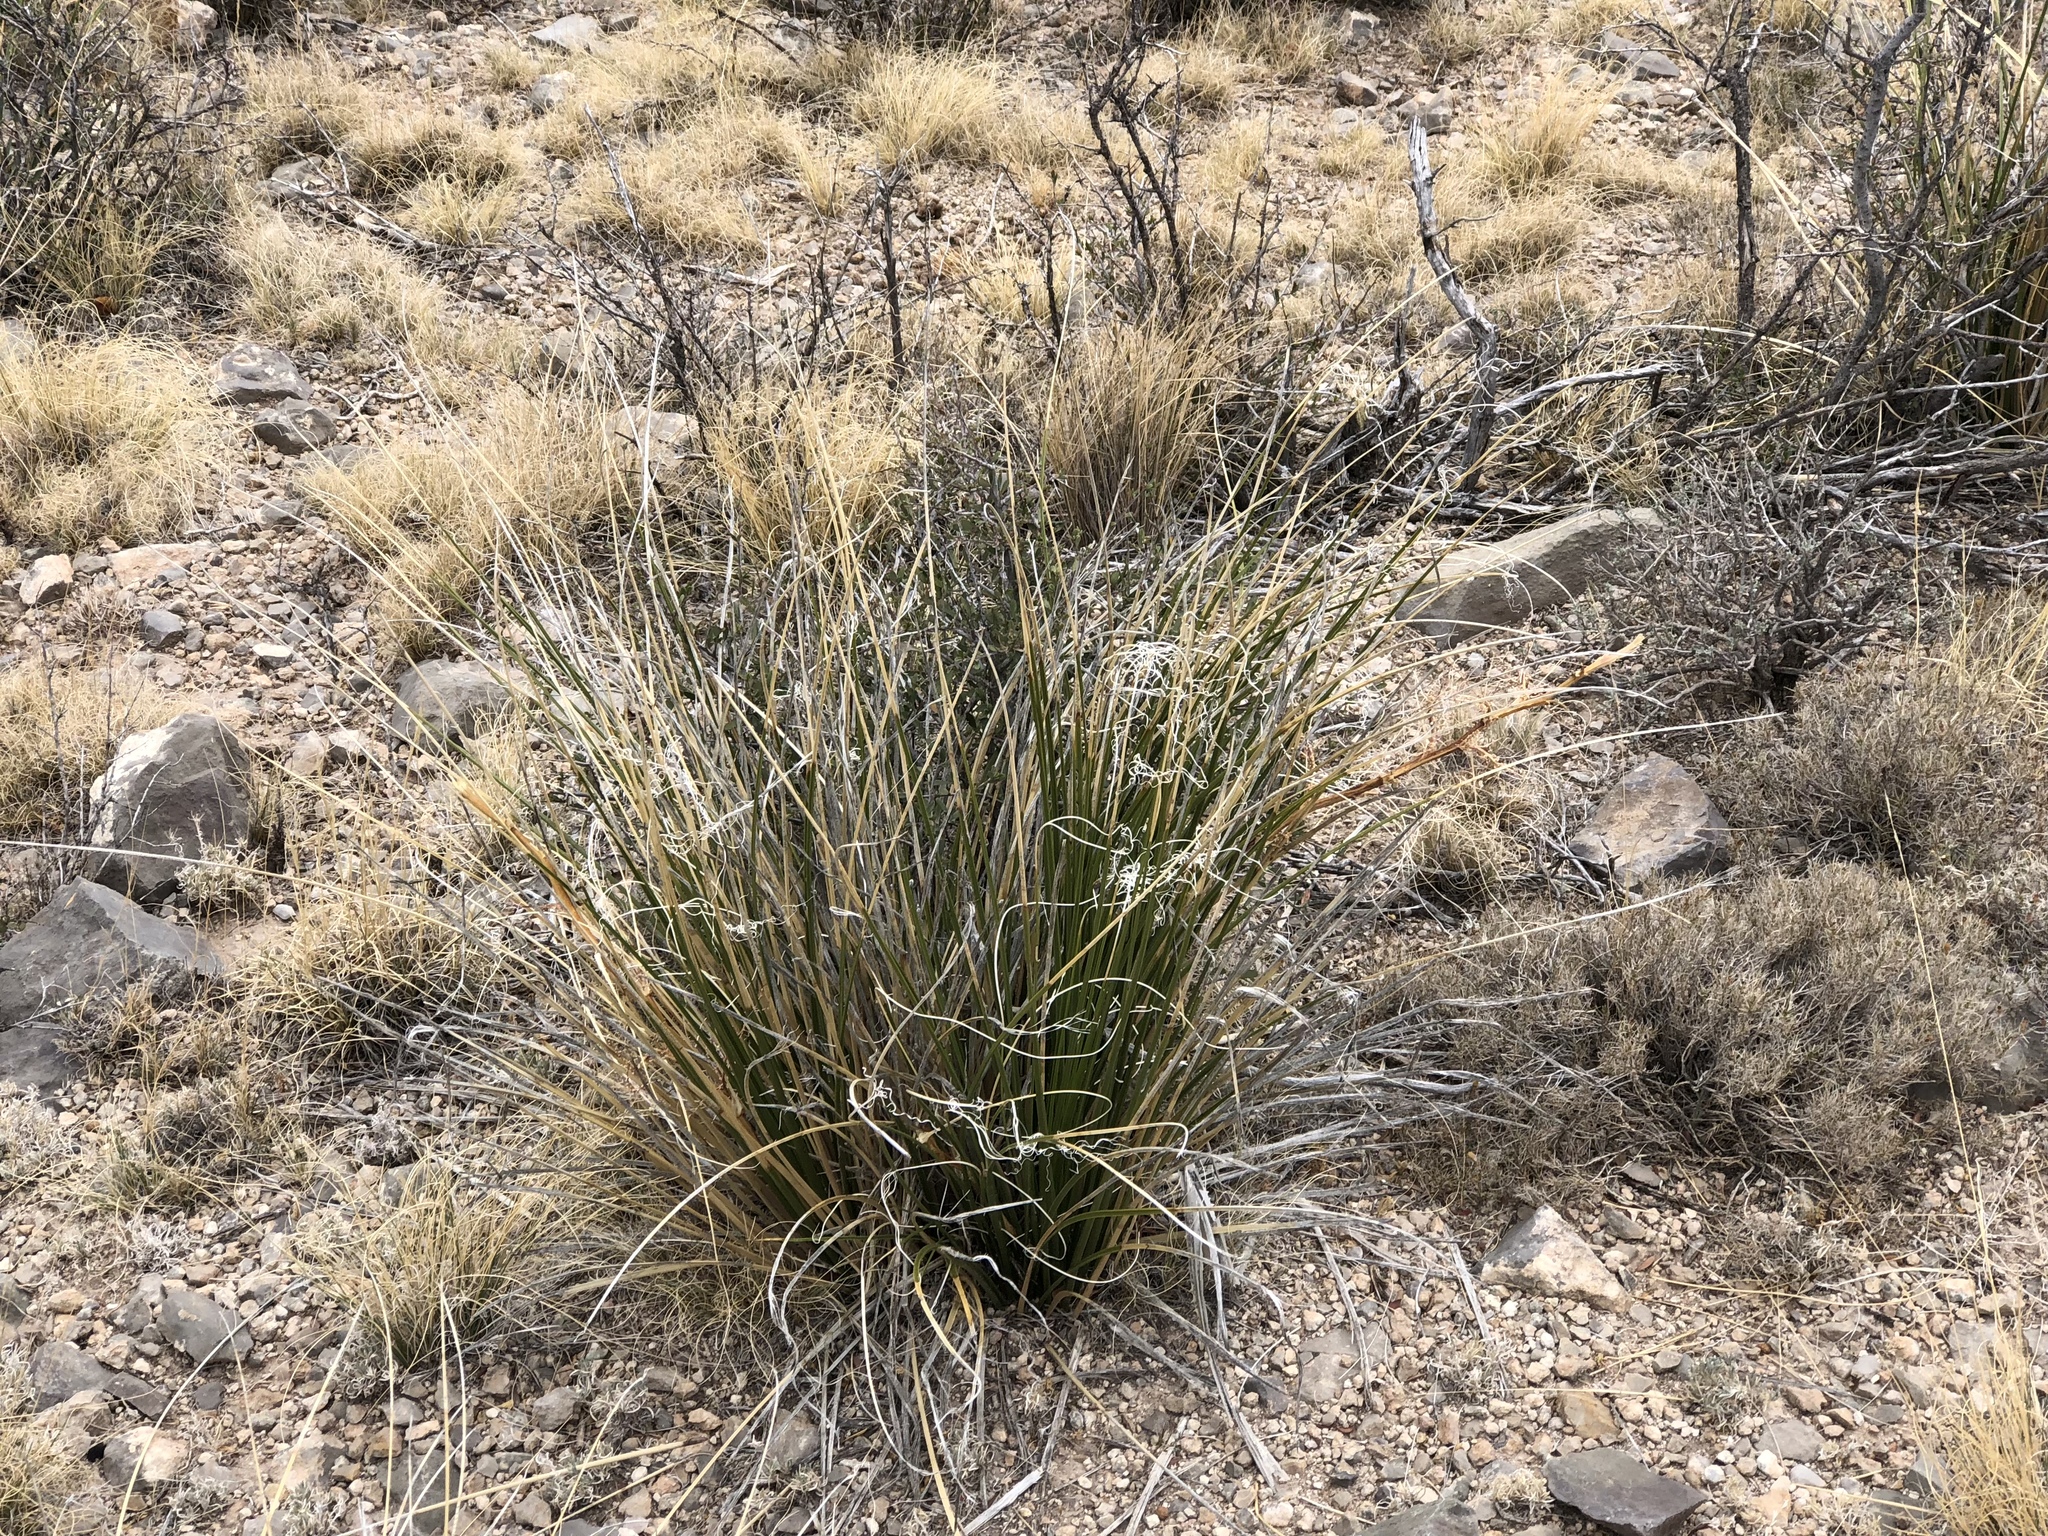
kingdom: Plantae
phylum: Tracheophyta
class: Liliopsida
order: Asparagales
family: Asparagaceae
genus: Nolina
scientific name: Nolina microcarpa
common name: Bear-grass
